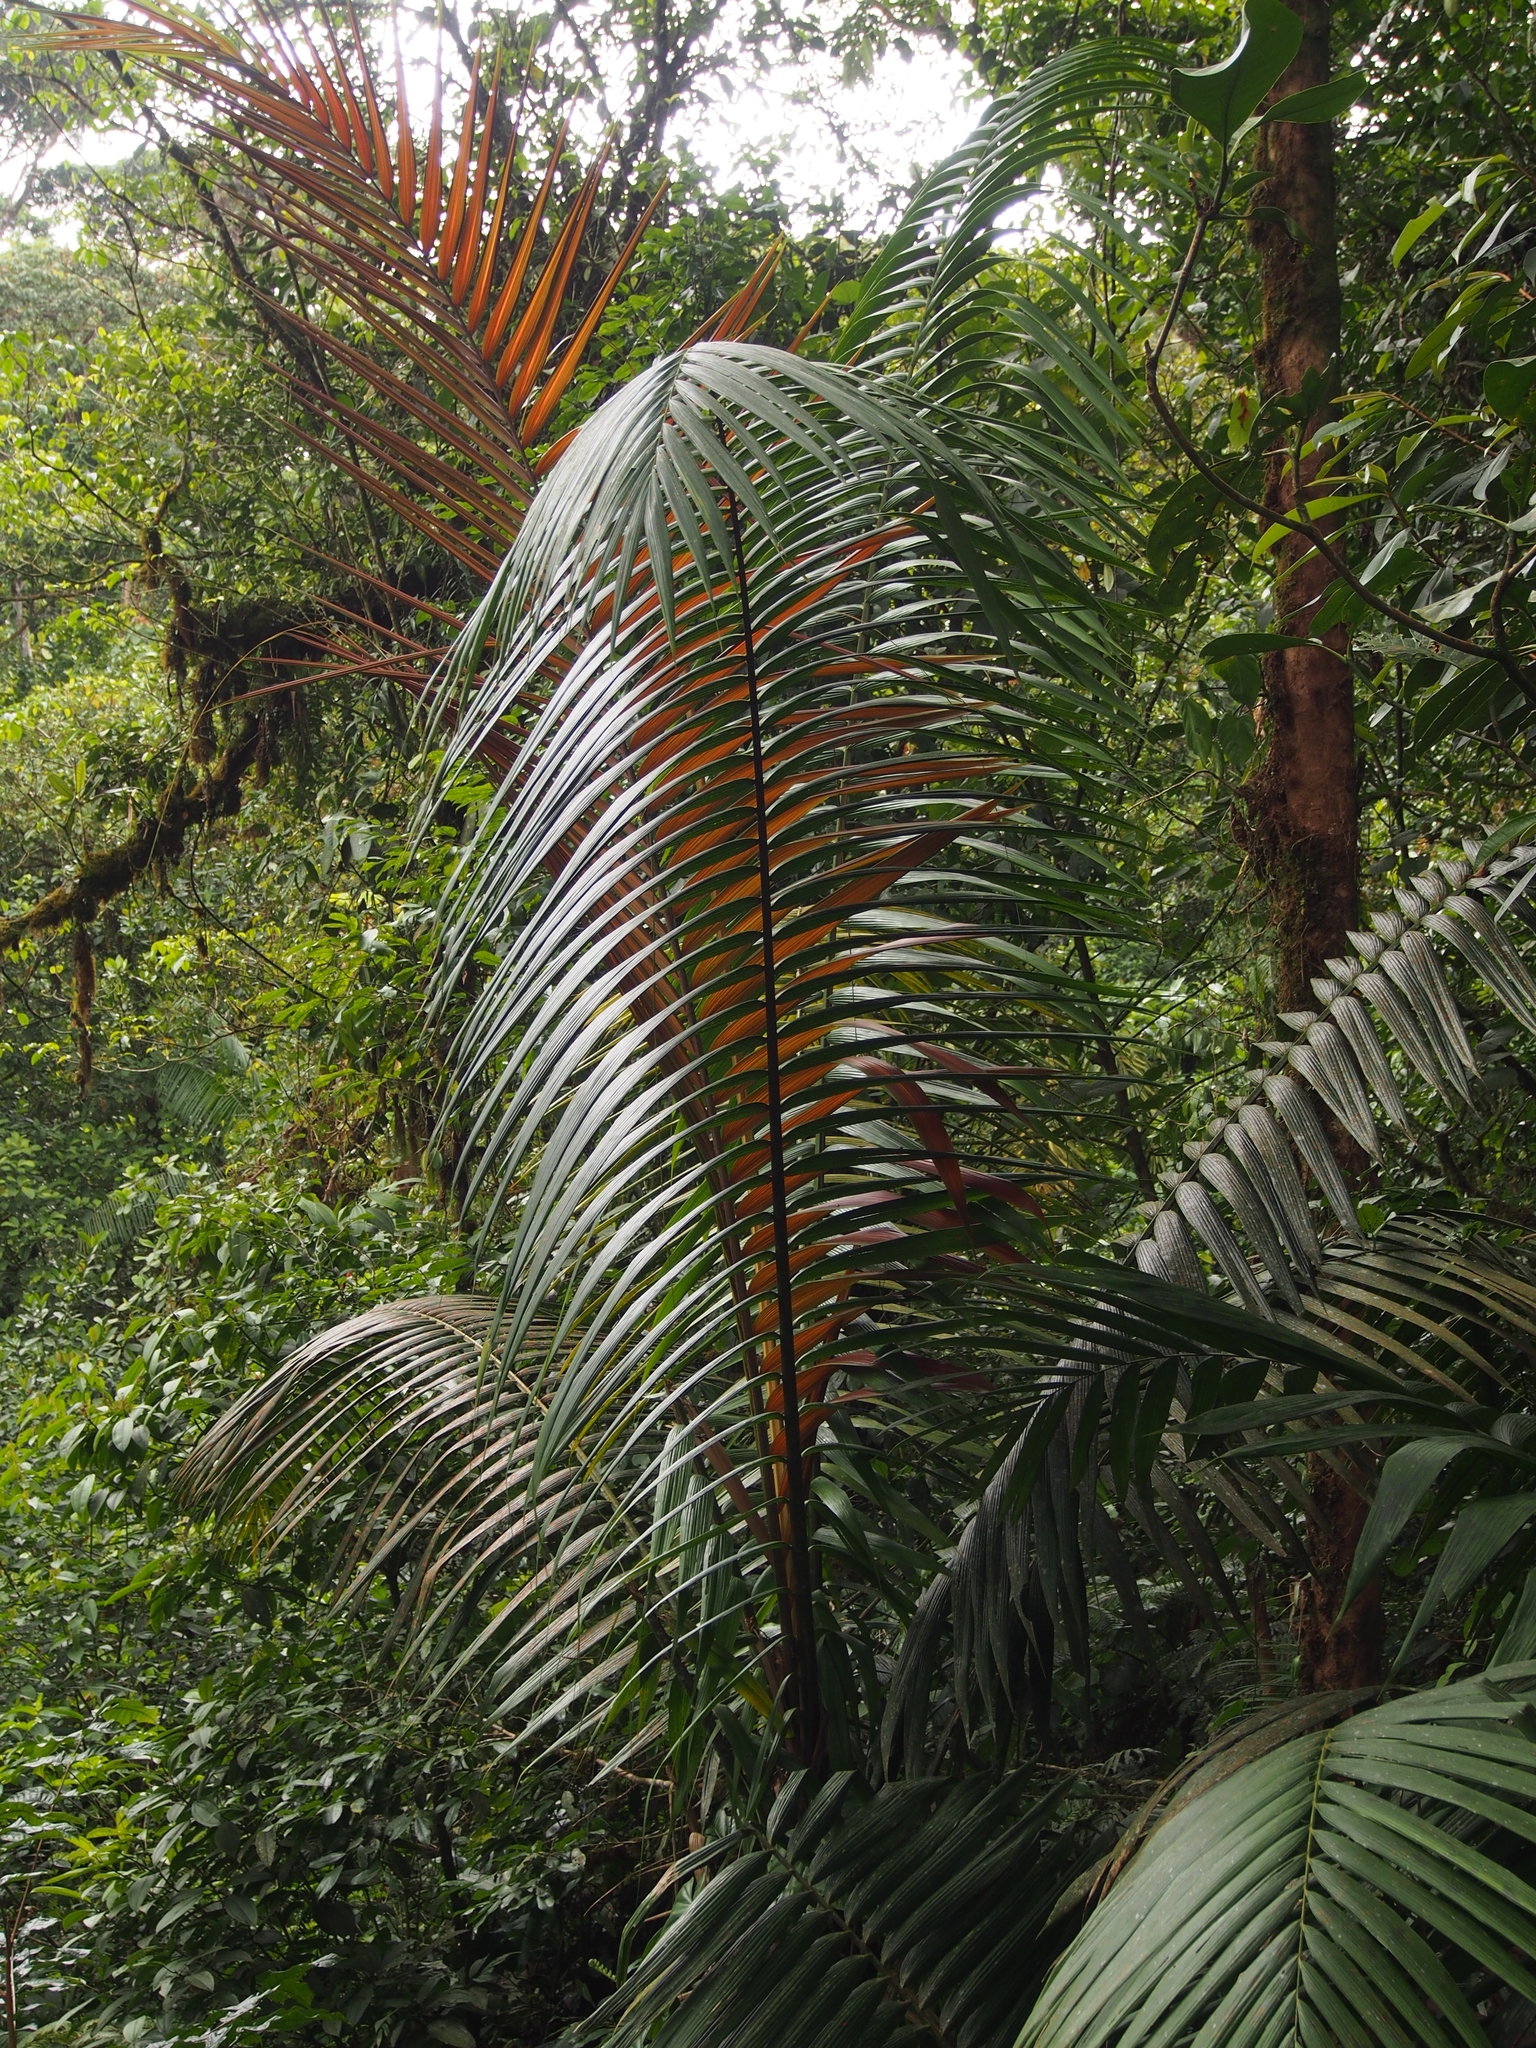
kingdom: Plantae
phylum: Tracheophyta
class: Liliopsida
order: Arecales
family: Arecaceae
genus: Welfia
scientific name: Welfia regia
